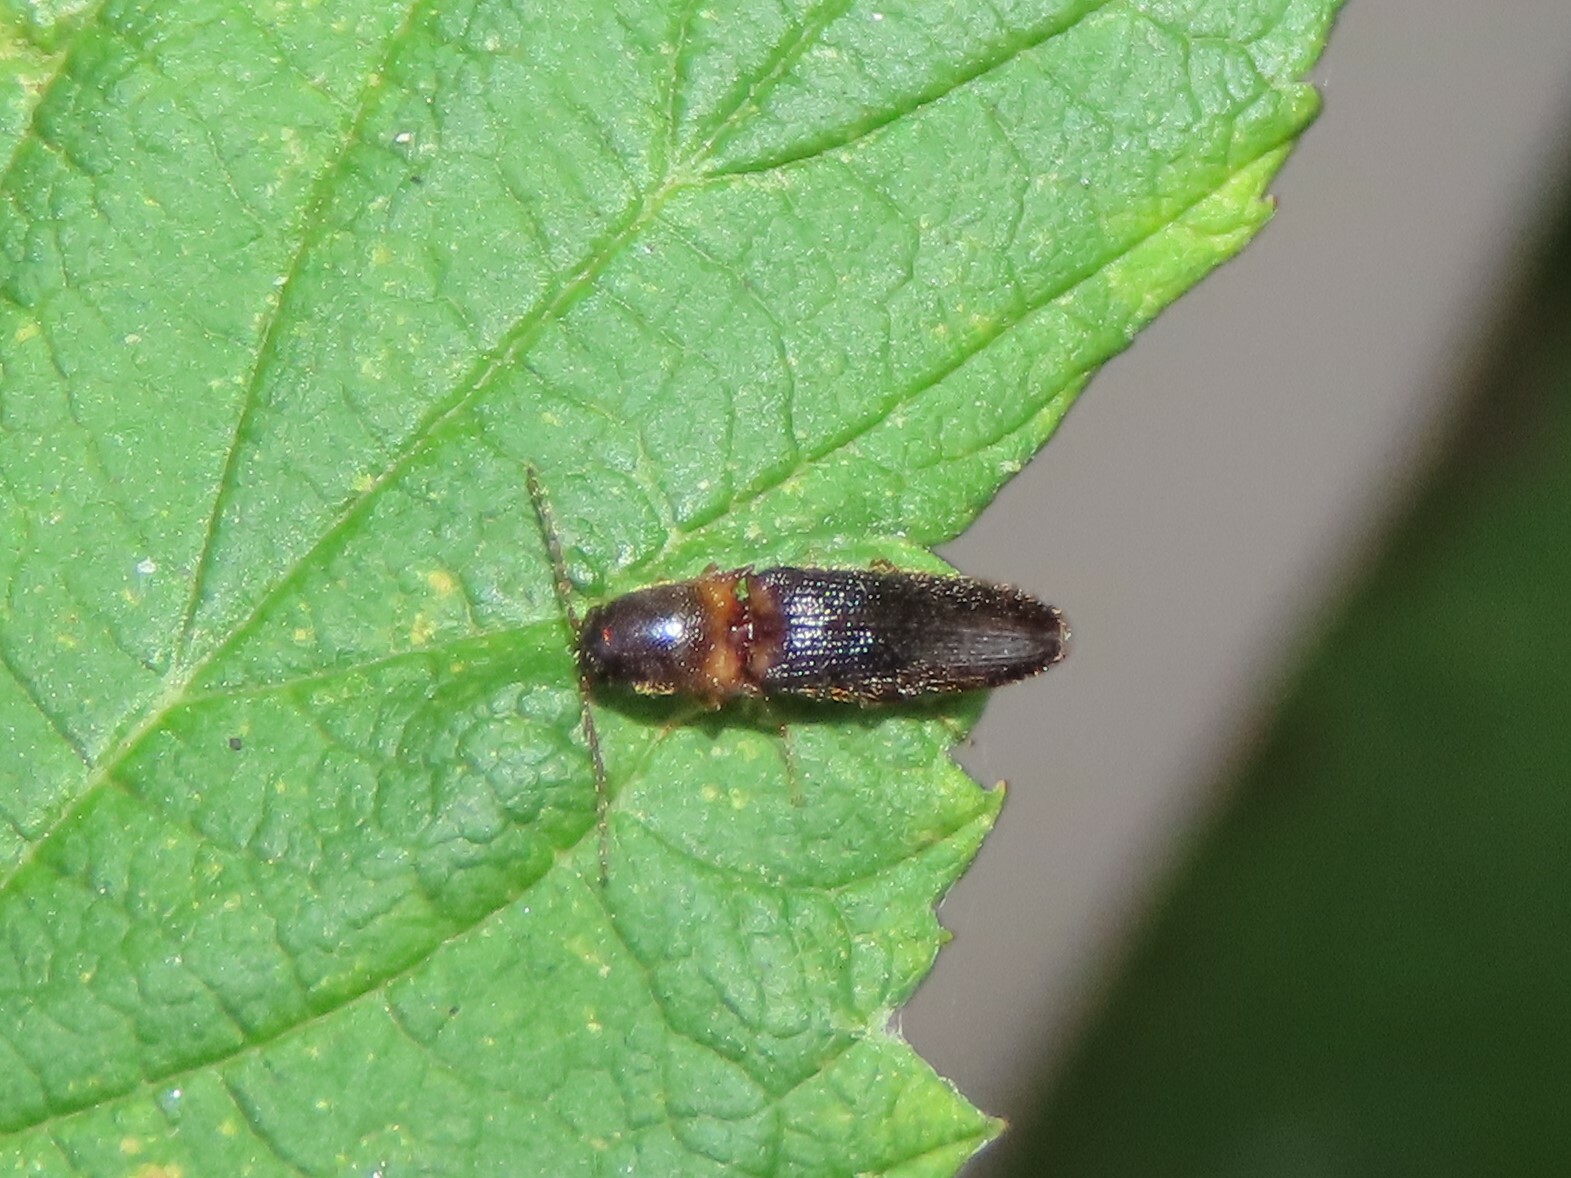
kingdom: Animalia
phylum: Arthropoda
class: Insecta
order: Coleoptera
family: Elateridae
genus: Megapenthes
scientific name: Megapenthes
